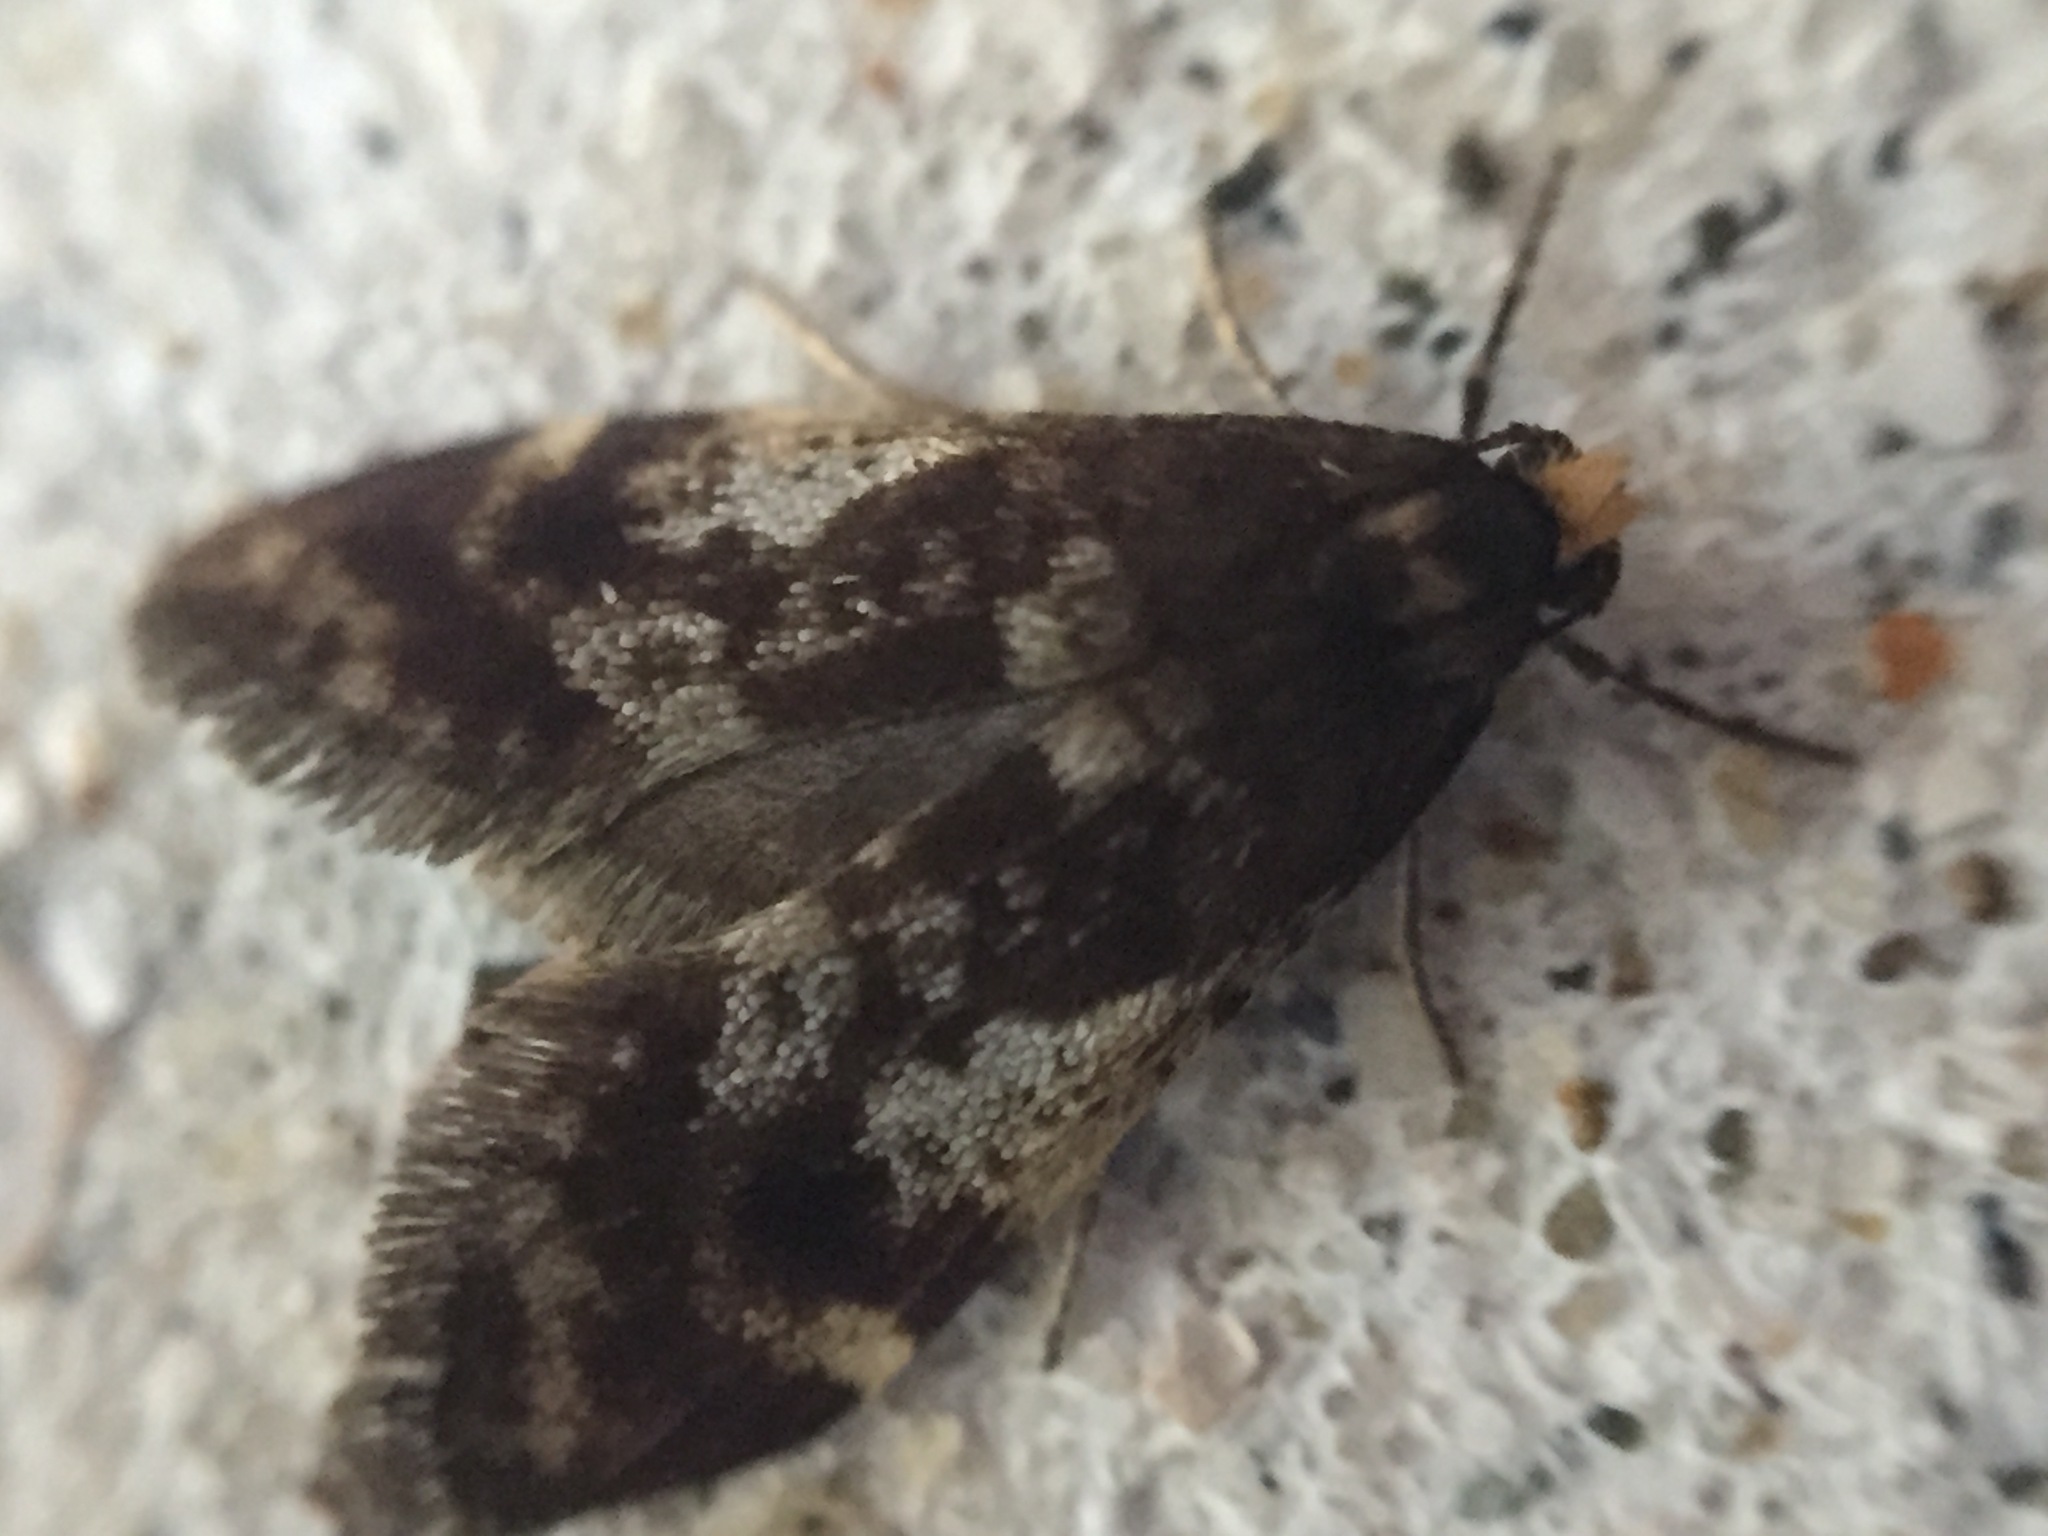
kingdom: Animalia
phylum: Arthropoda
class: Insecta
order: Lepidoptera
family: Psychidae
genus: Lepidoscia
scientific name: Lepidoscia lainodes
